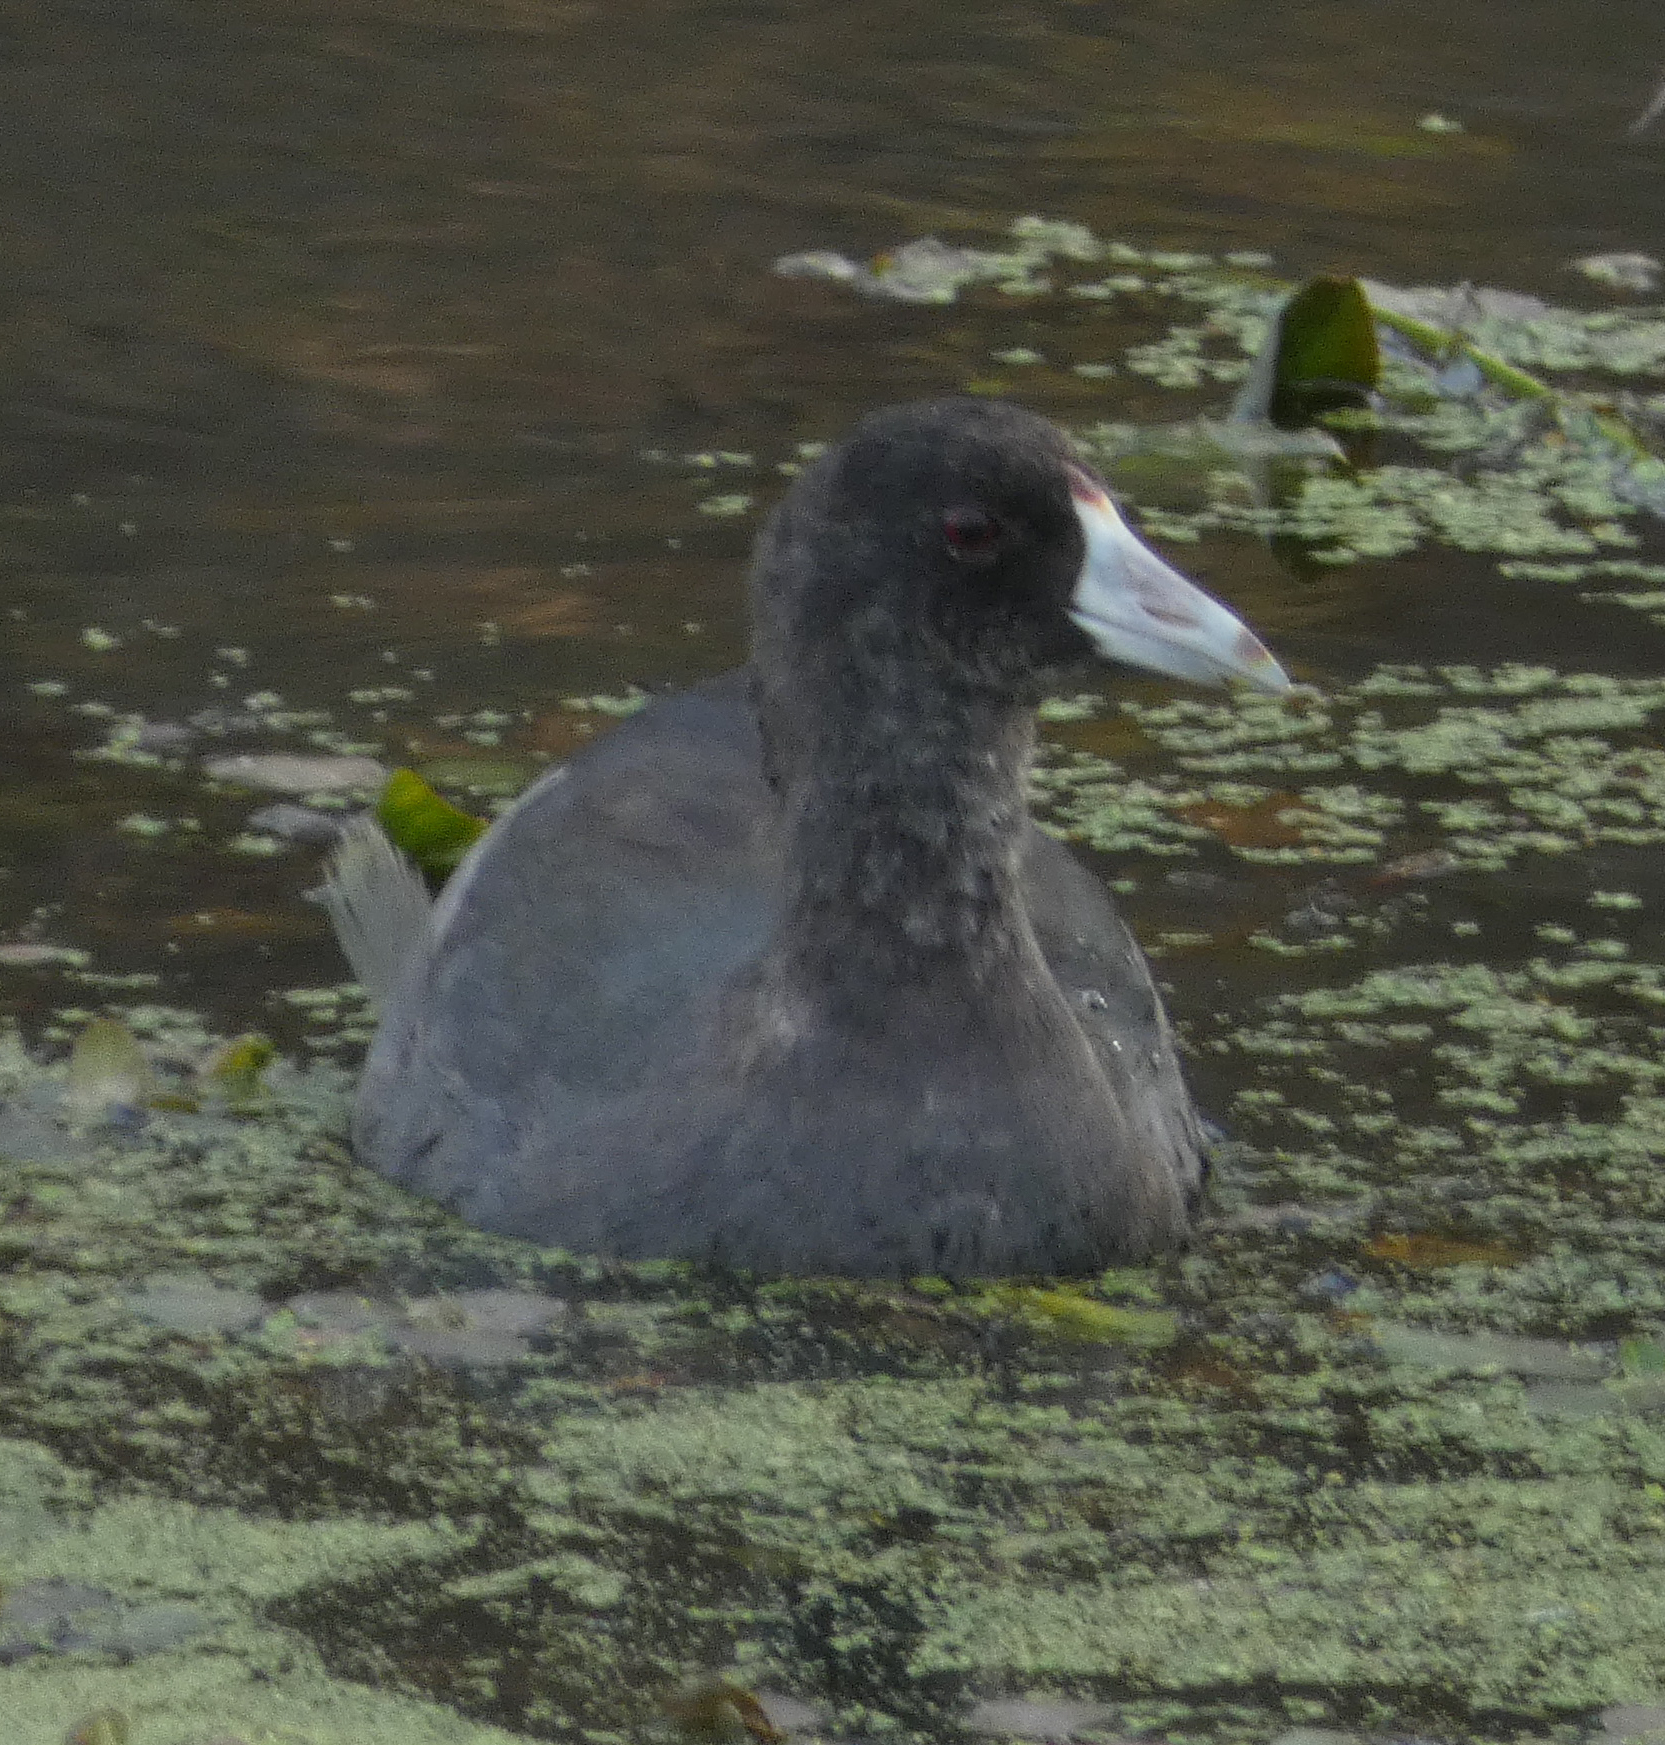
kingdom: Animalia
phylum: Chordata
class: Aves
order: Gruiformes
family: Rallidae
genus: Fulica
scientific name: Fulica americana
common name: American coot
